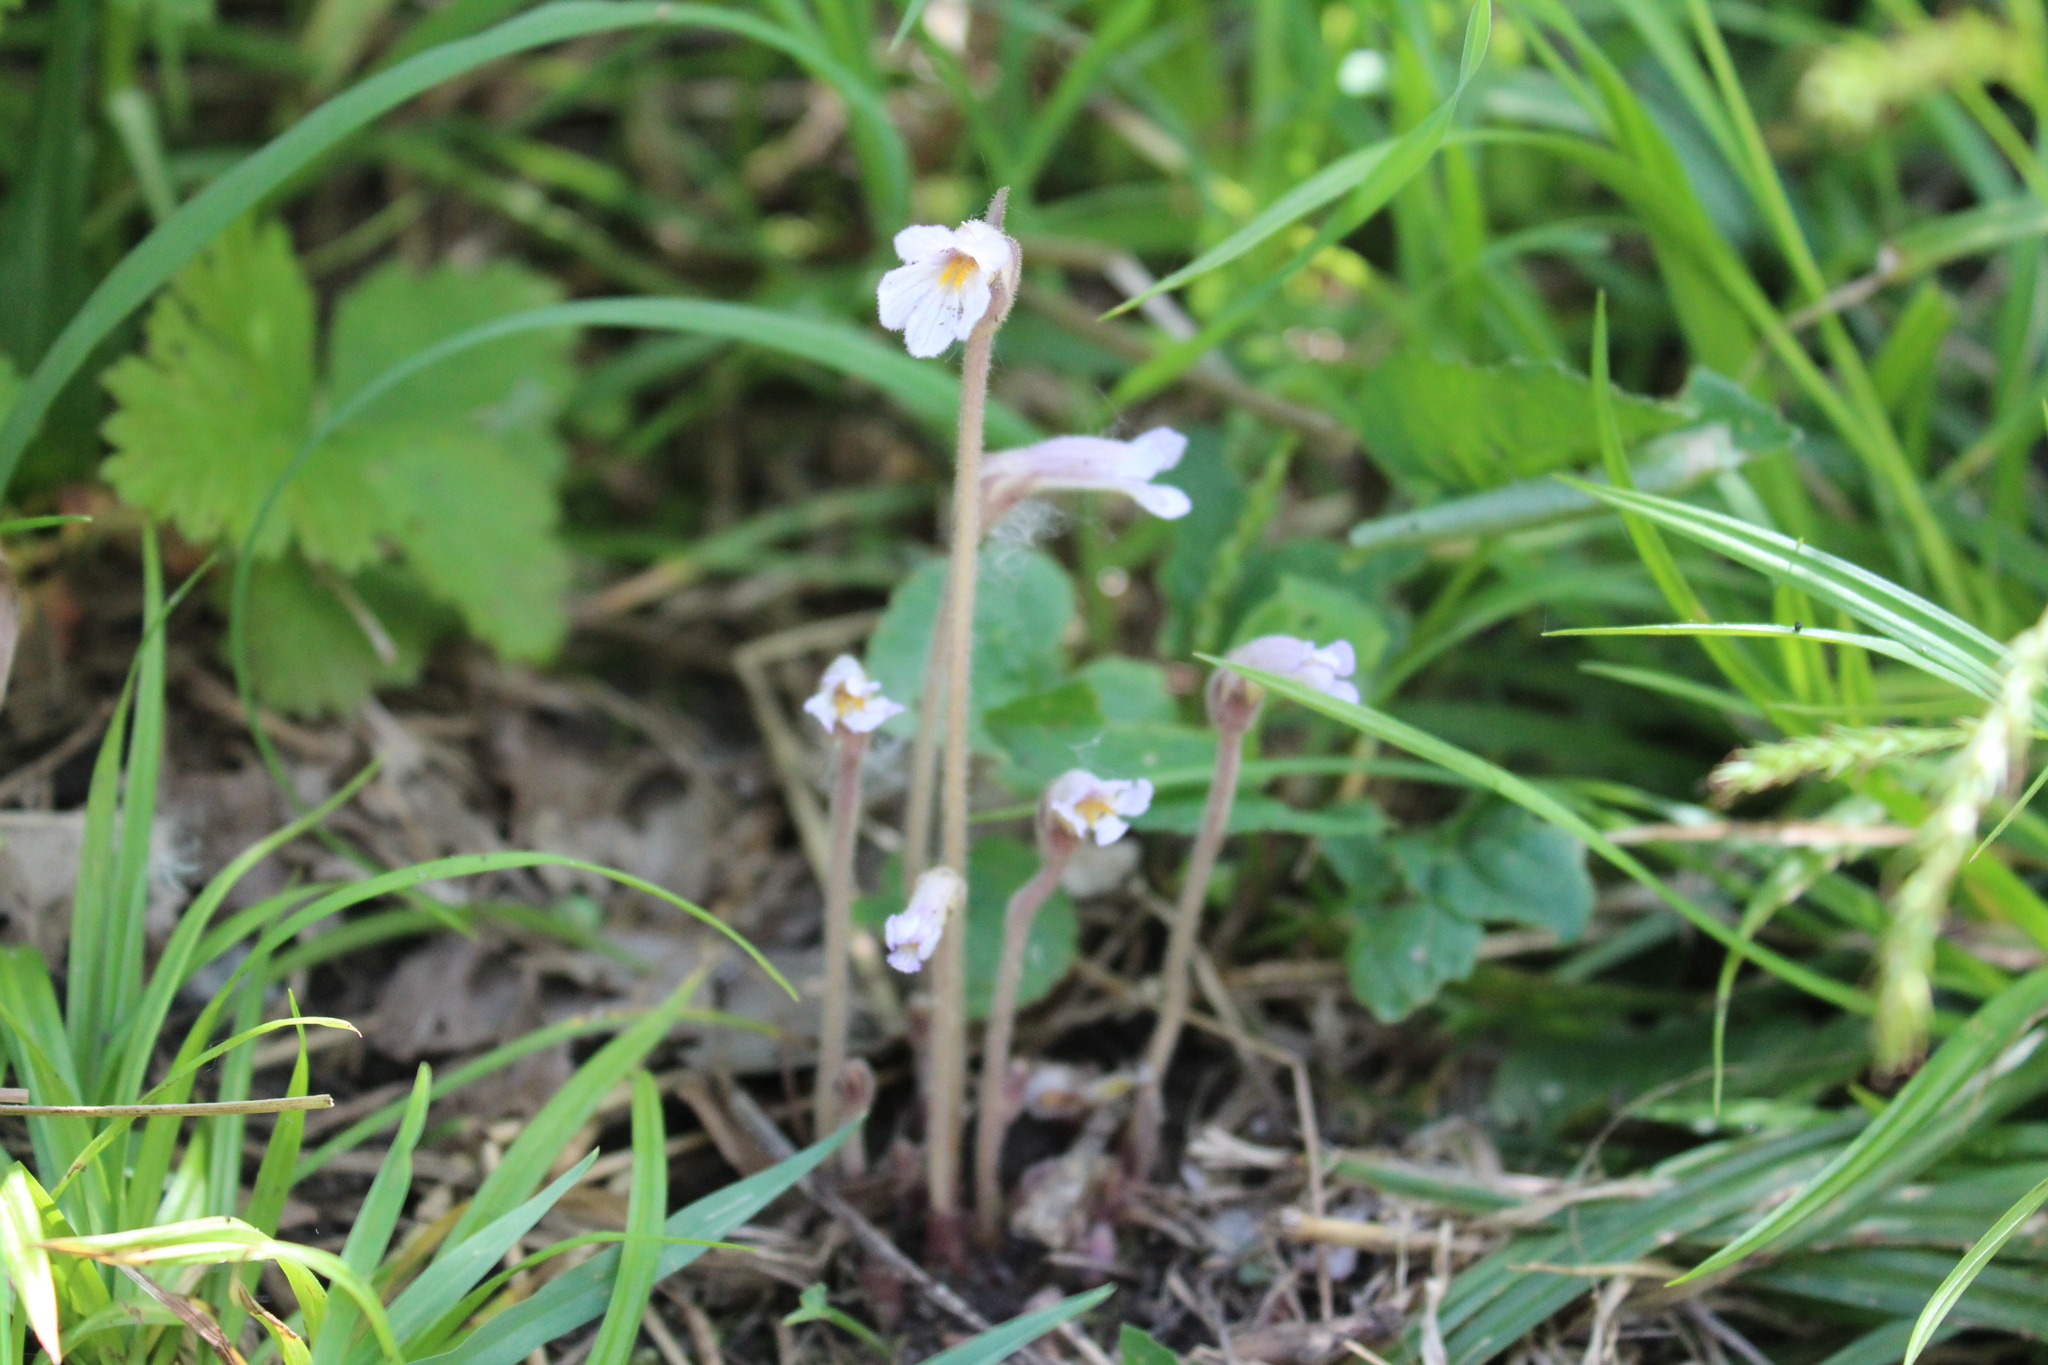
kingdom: Plantae
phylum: Tracheophyta
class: Magnoliopsida
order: Lamiales
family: Orobanchaceae
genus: Aphyllon
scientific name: Aphyllon uniflorum
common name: One-flowered broomrape
